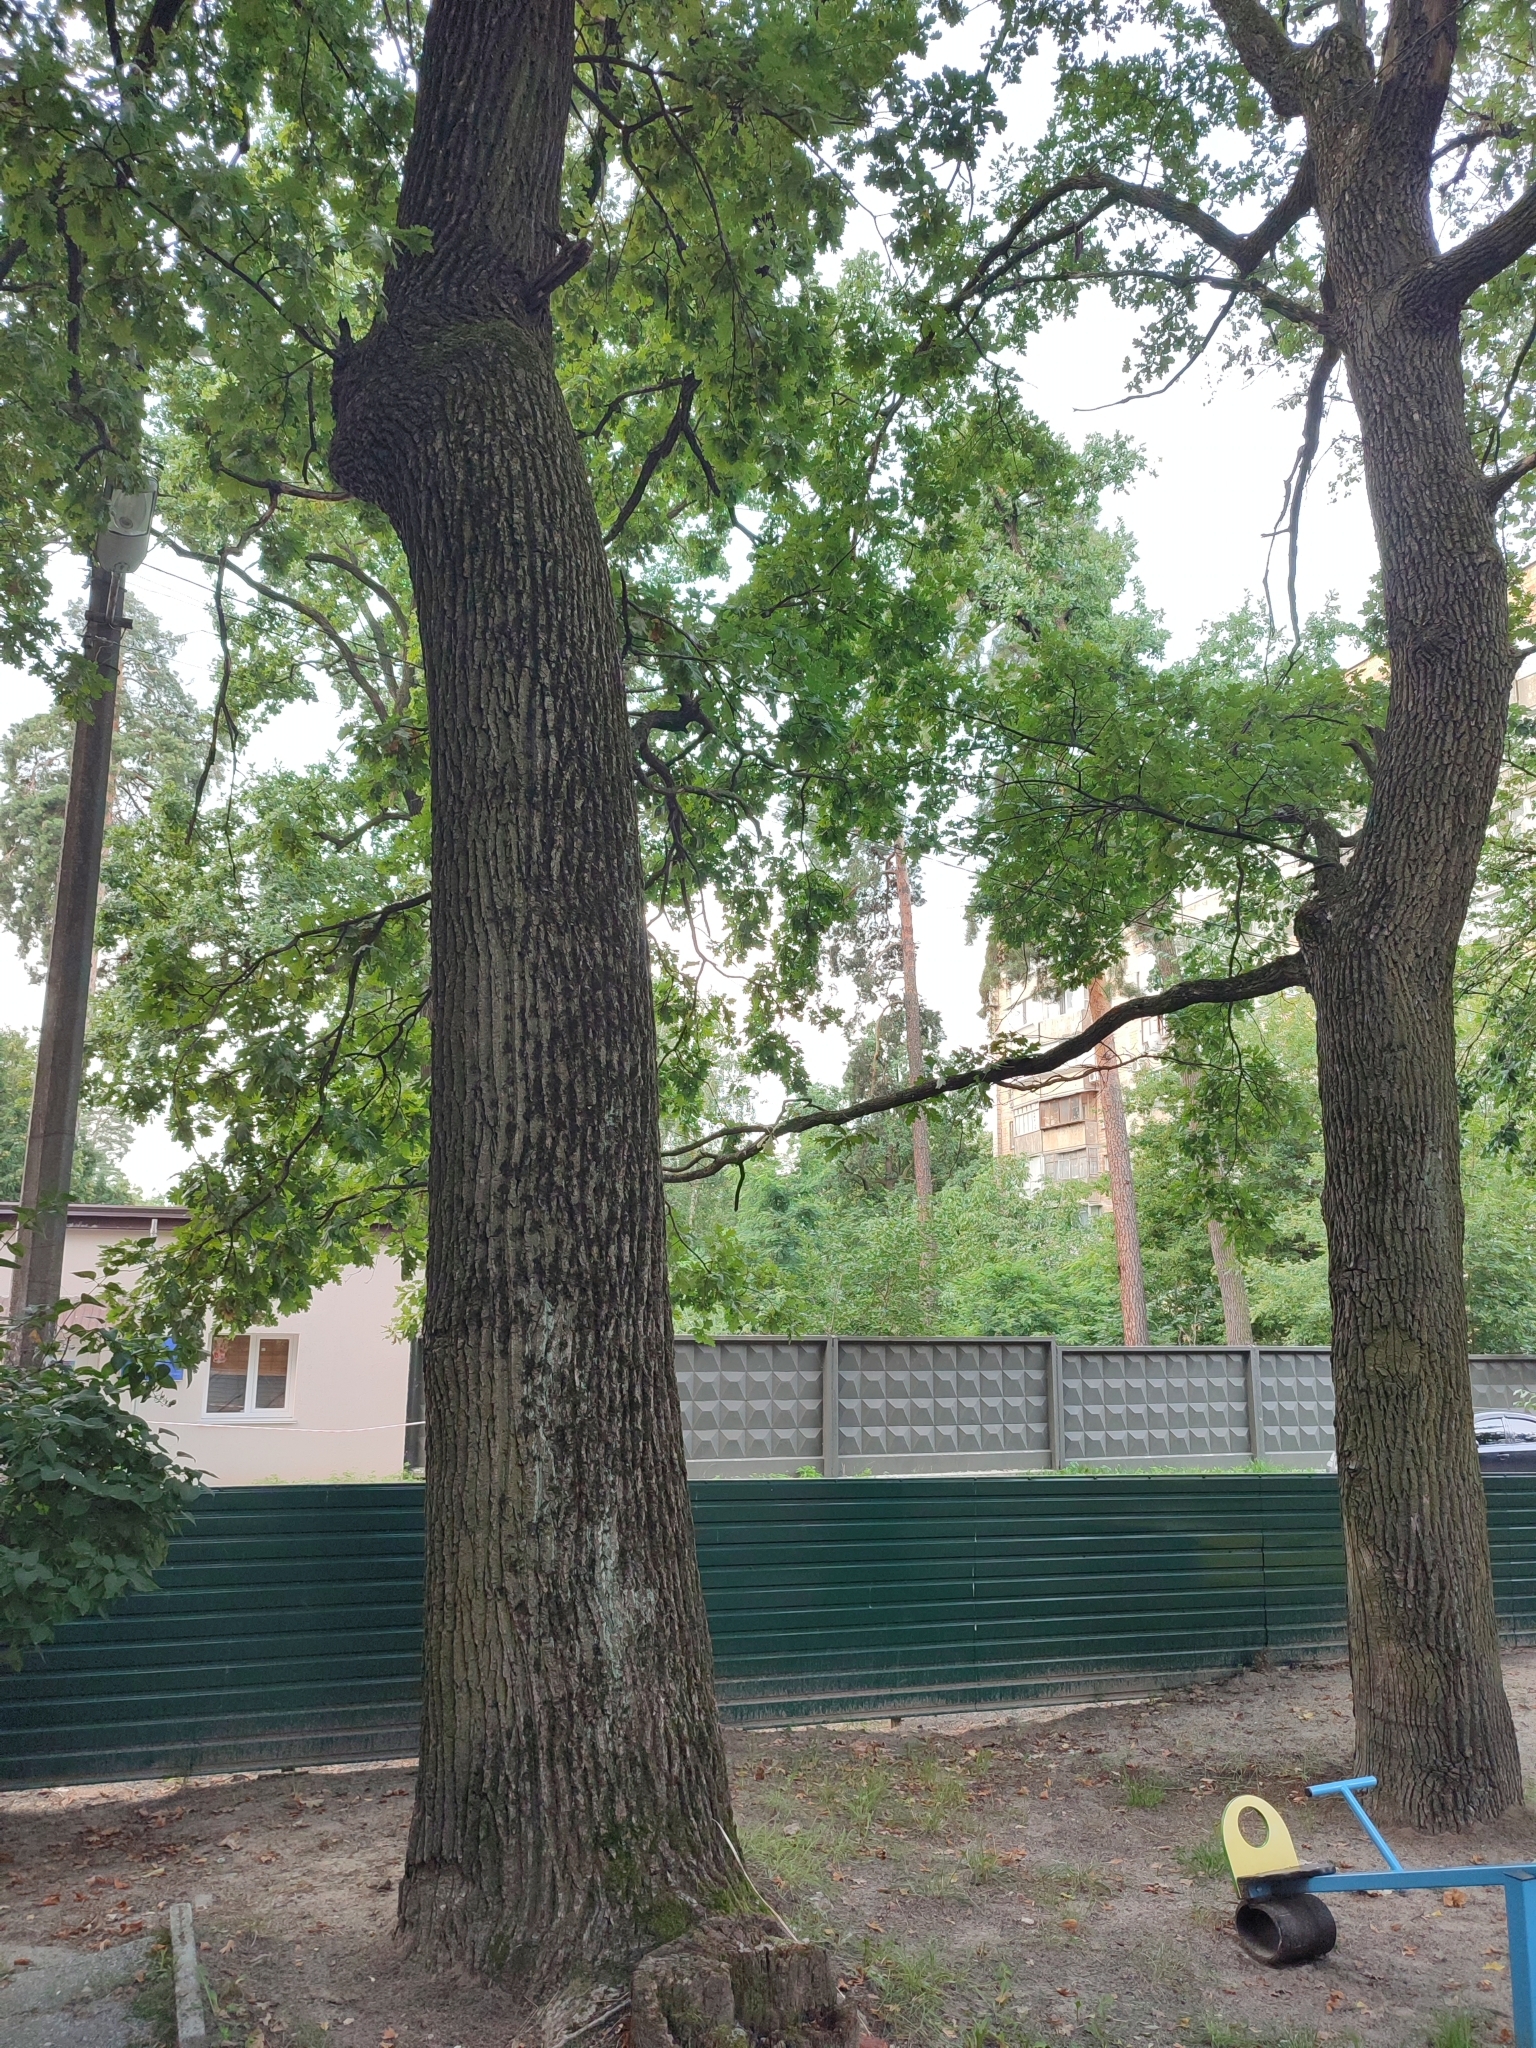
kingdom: Plantae
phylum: Tracheophyta
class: Magnoliopsida
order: Fagales
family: Fagaceae
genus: Quercus
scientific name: Quercus robur
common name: Pedunculate oak
